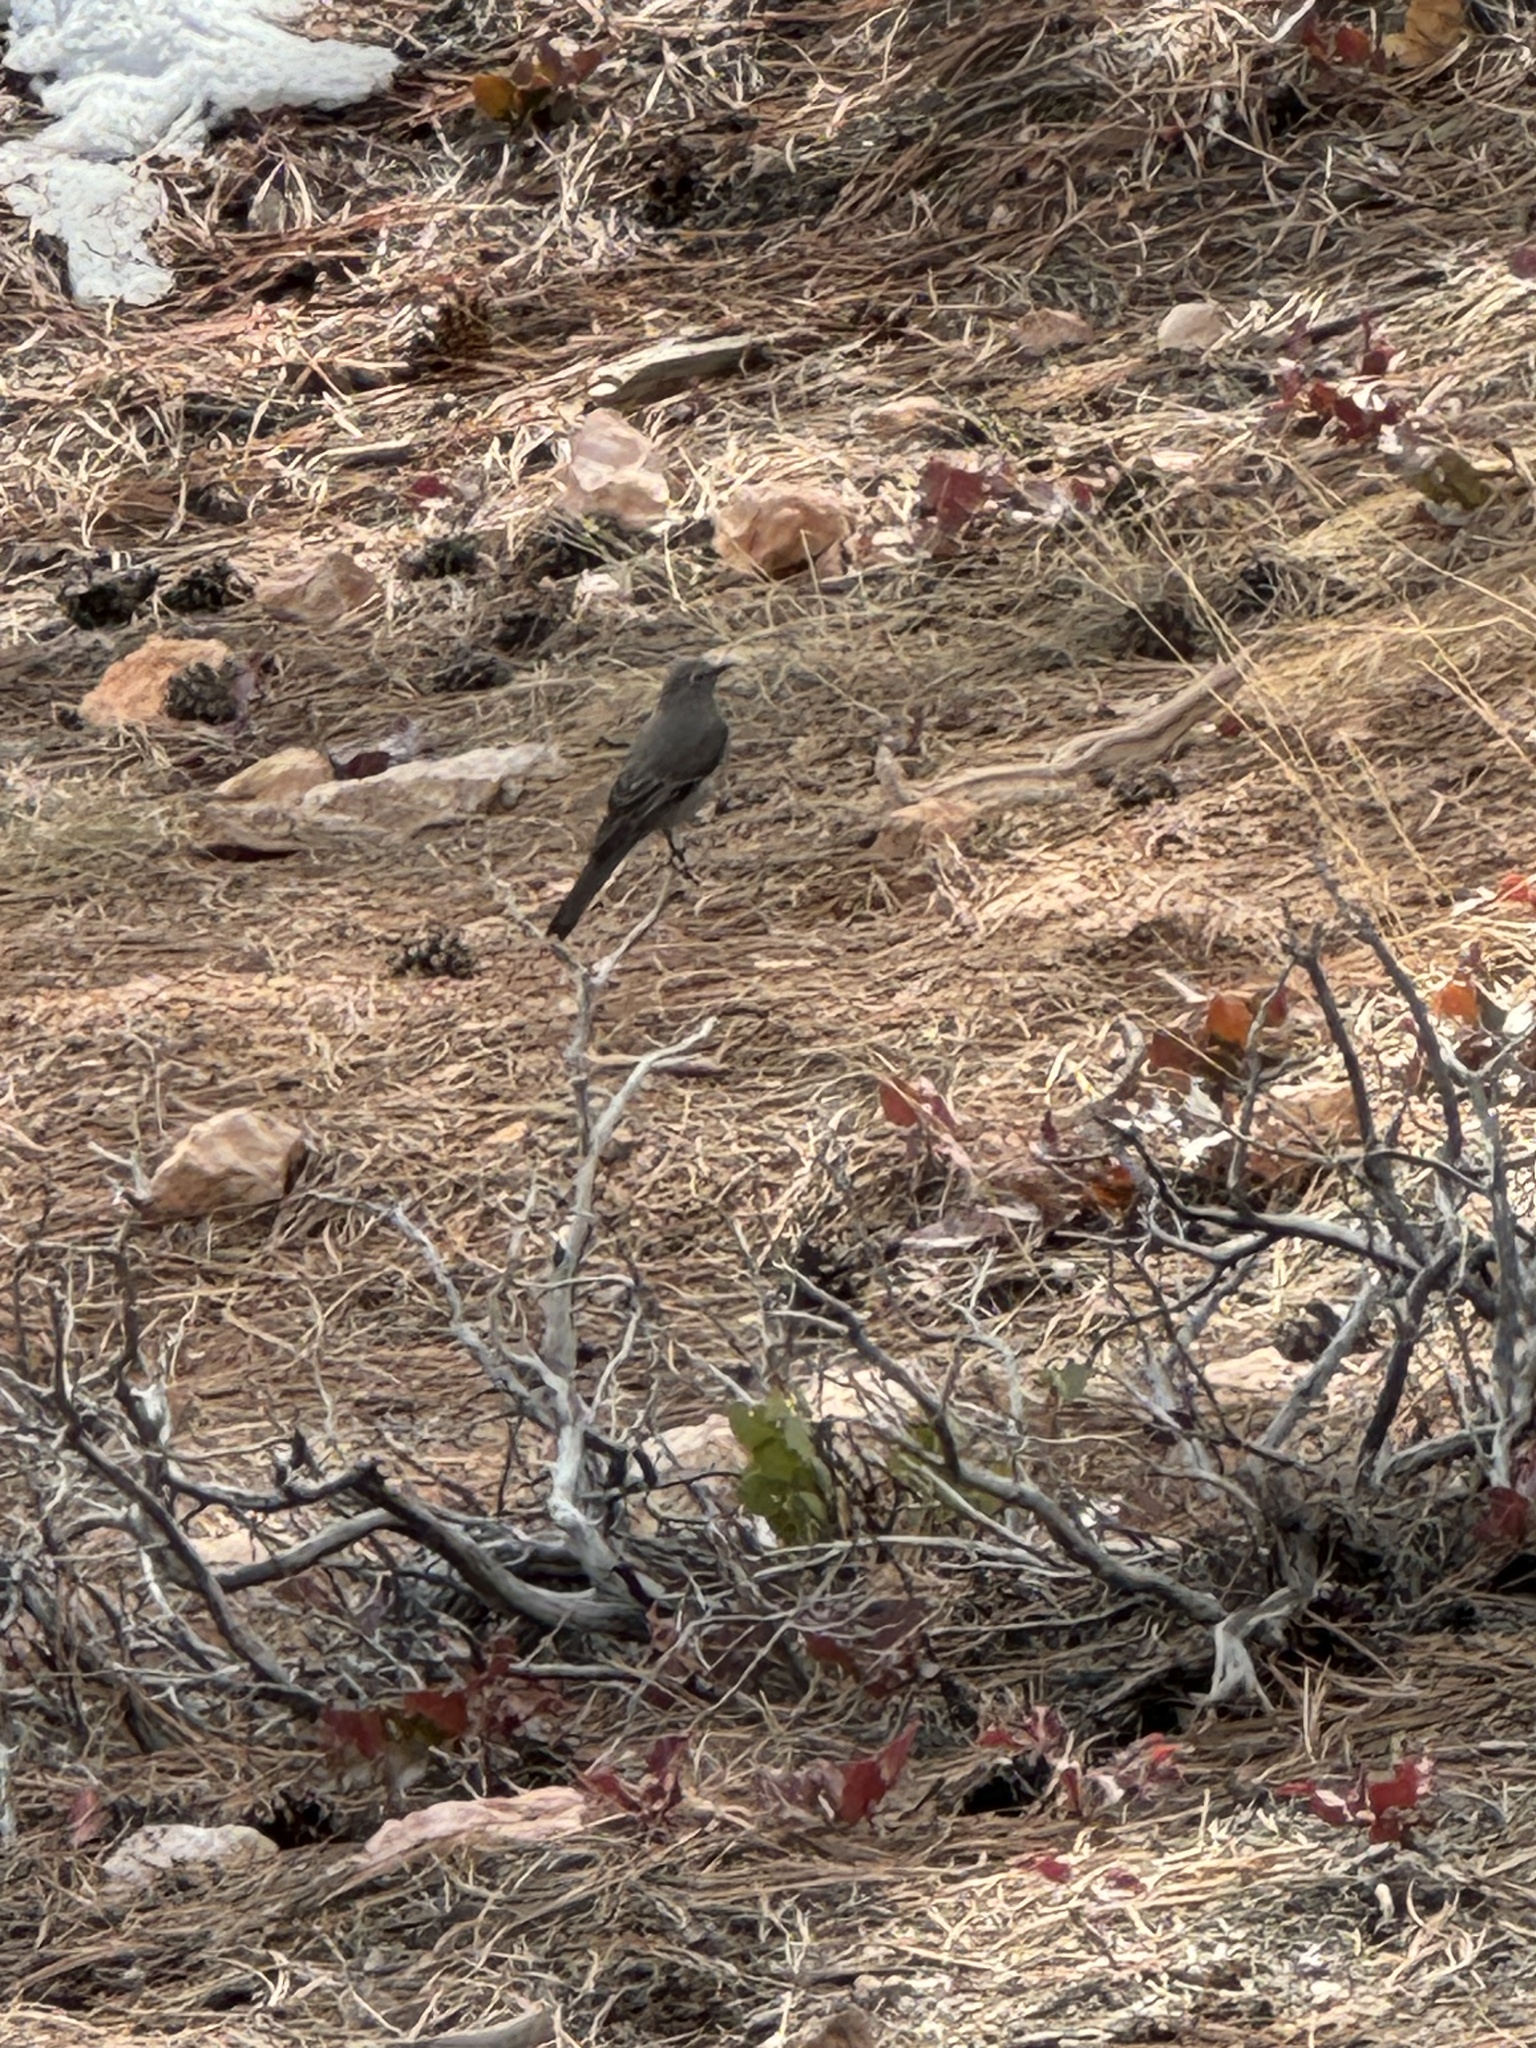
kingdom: Animalia
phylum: Chordata
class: Aves
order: Passeriformes
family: Turdidae
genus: Myadestes
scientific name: Myadestes townsendi
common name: Townsend's solitaire
